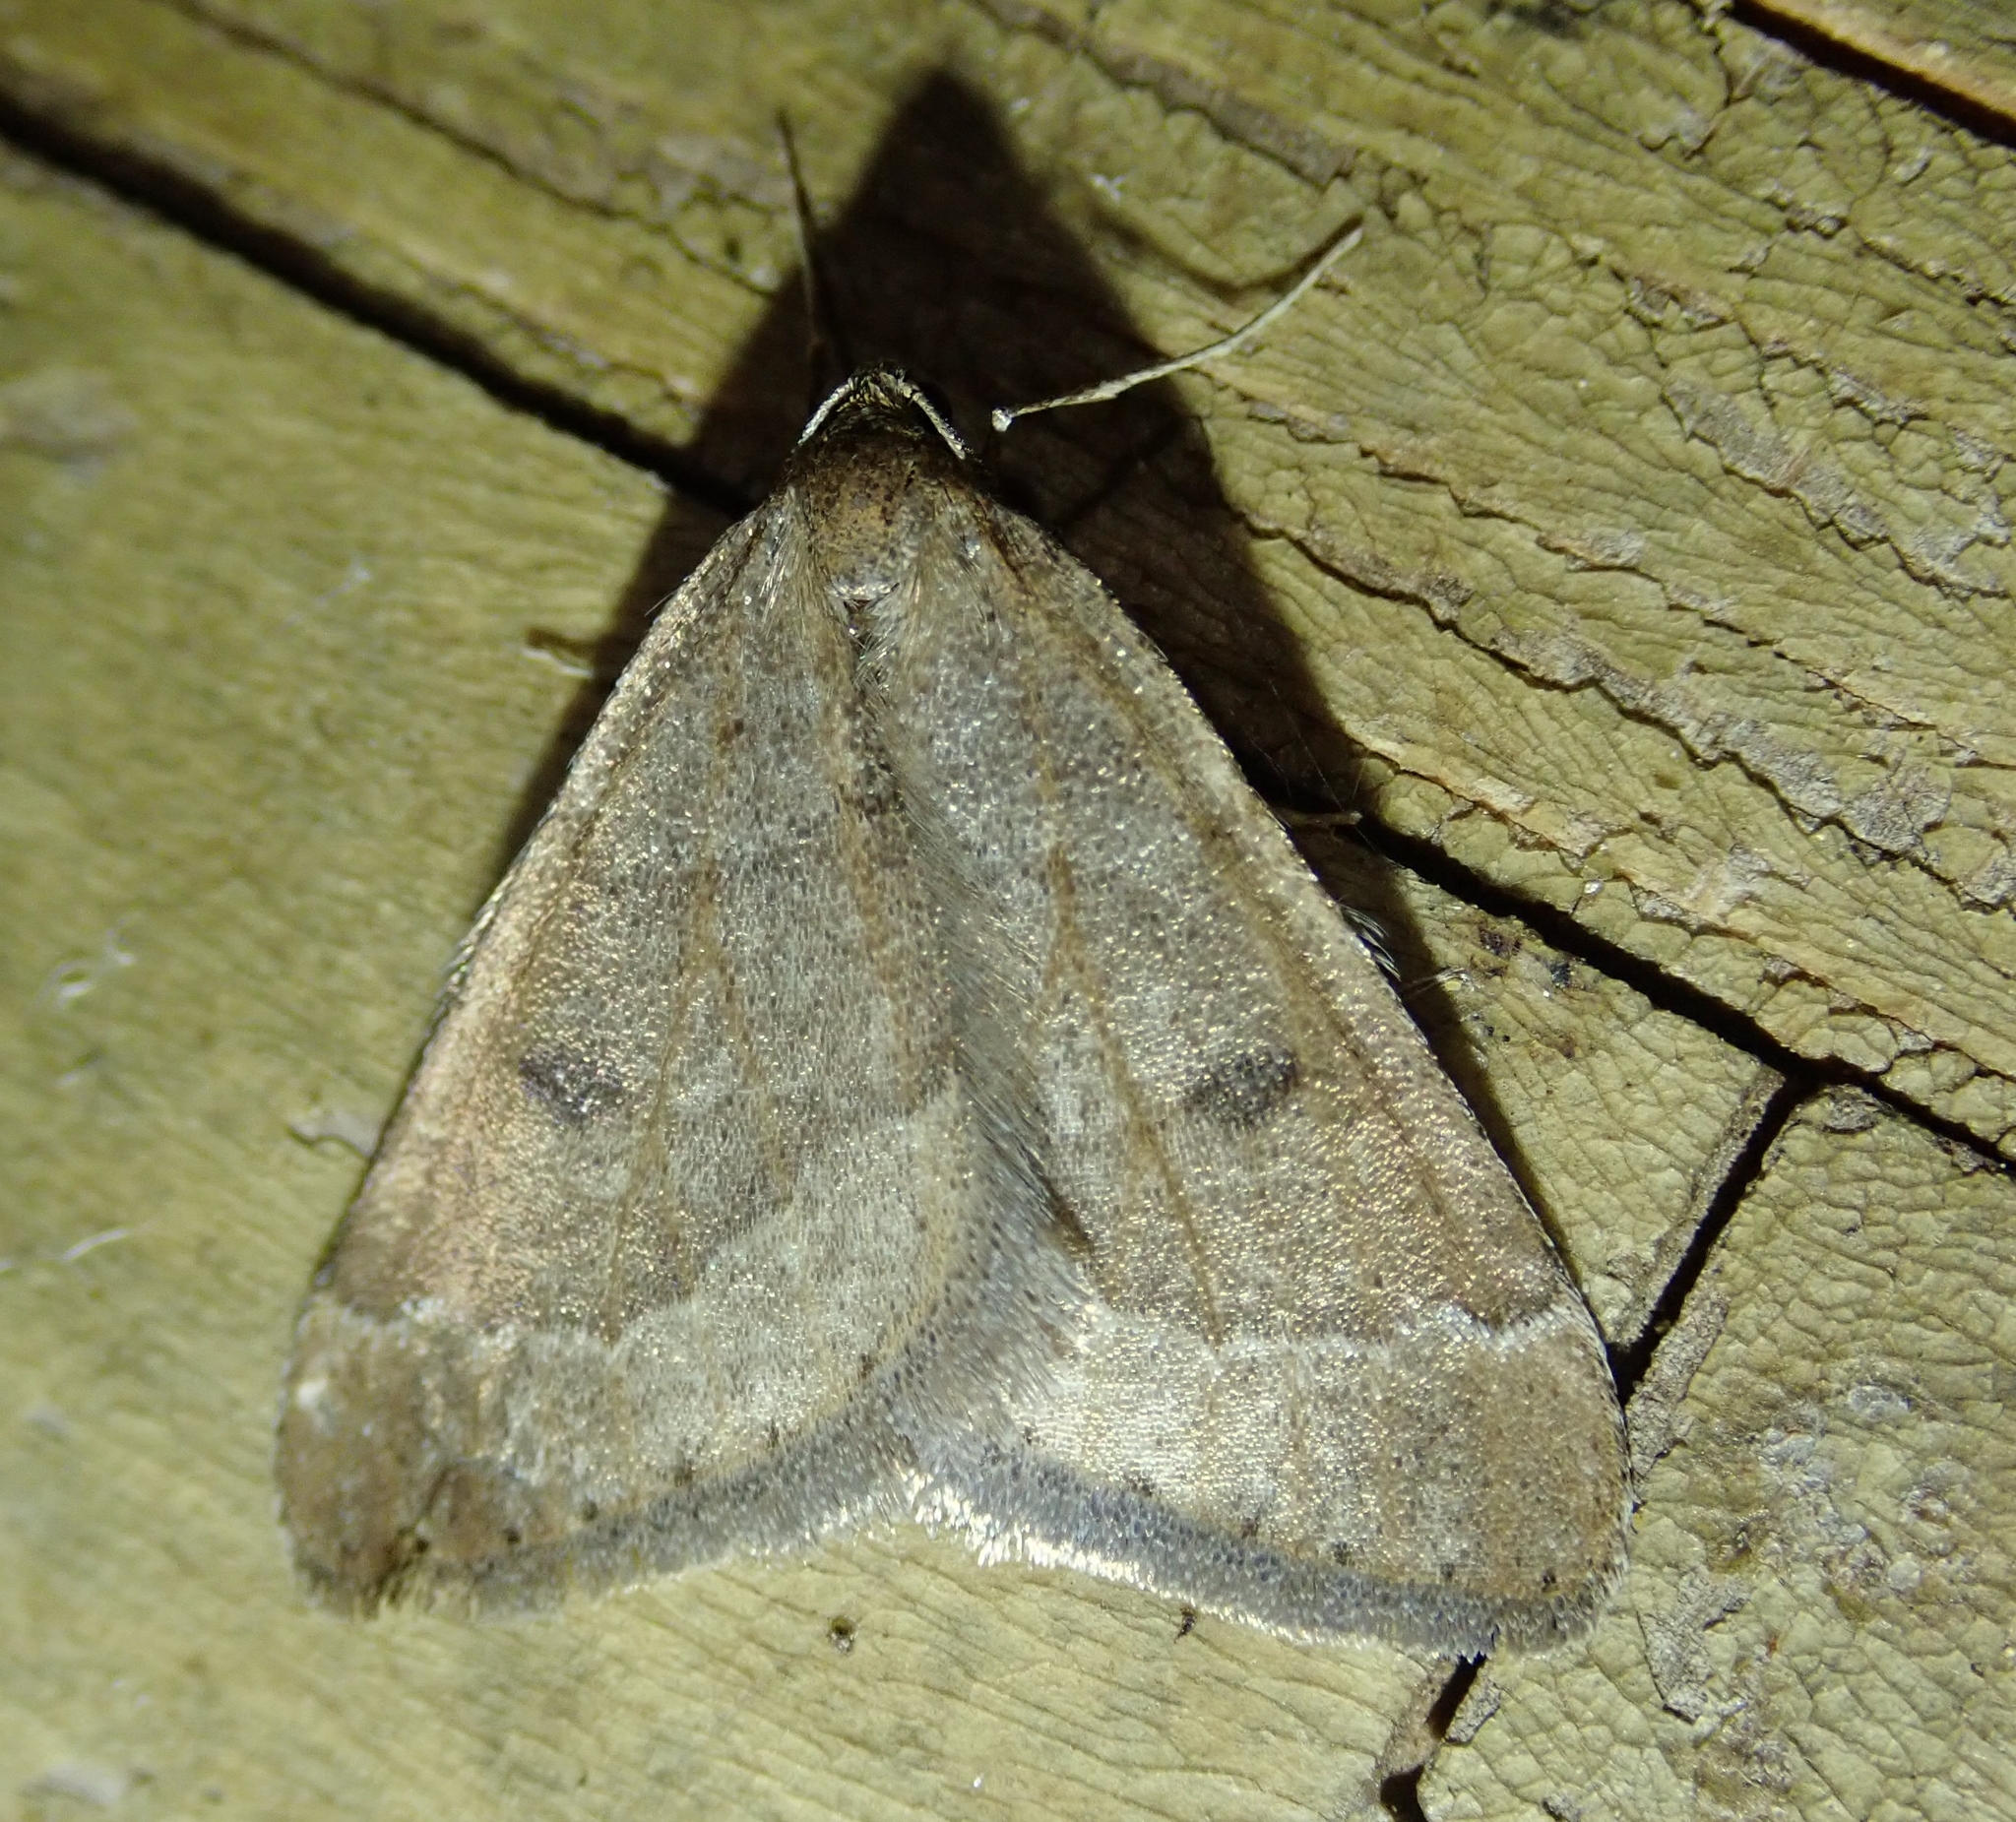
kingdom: Animalia
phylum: Arthropoda
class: Insecta
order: Lepidoptera
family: Geometridae
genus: Theria
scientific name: Theria primaria
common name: Early moth
